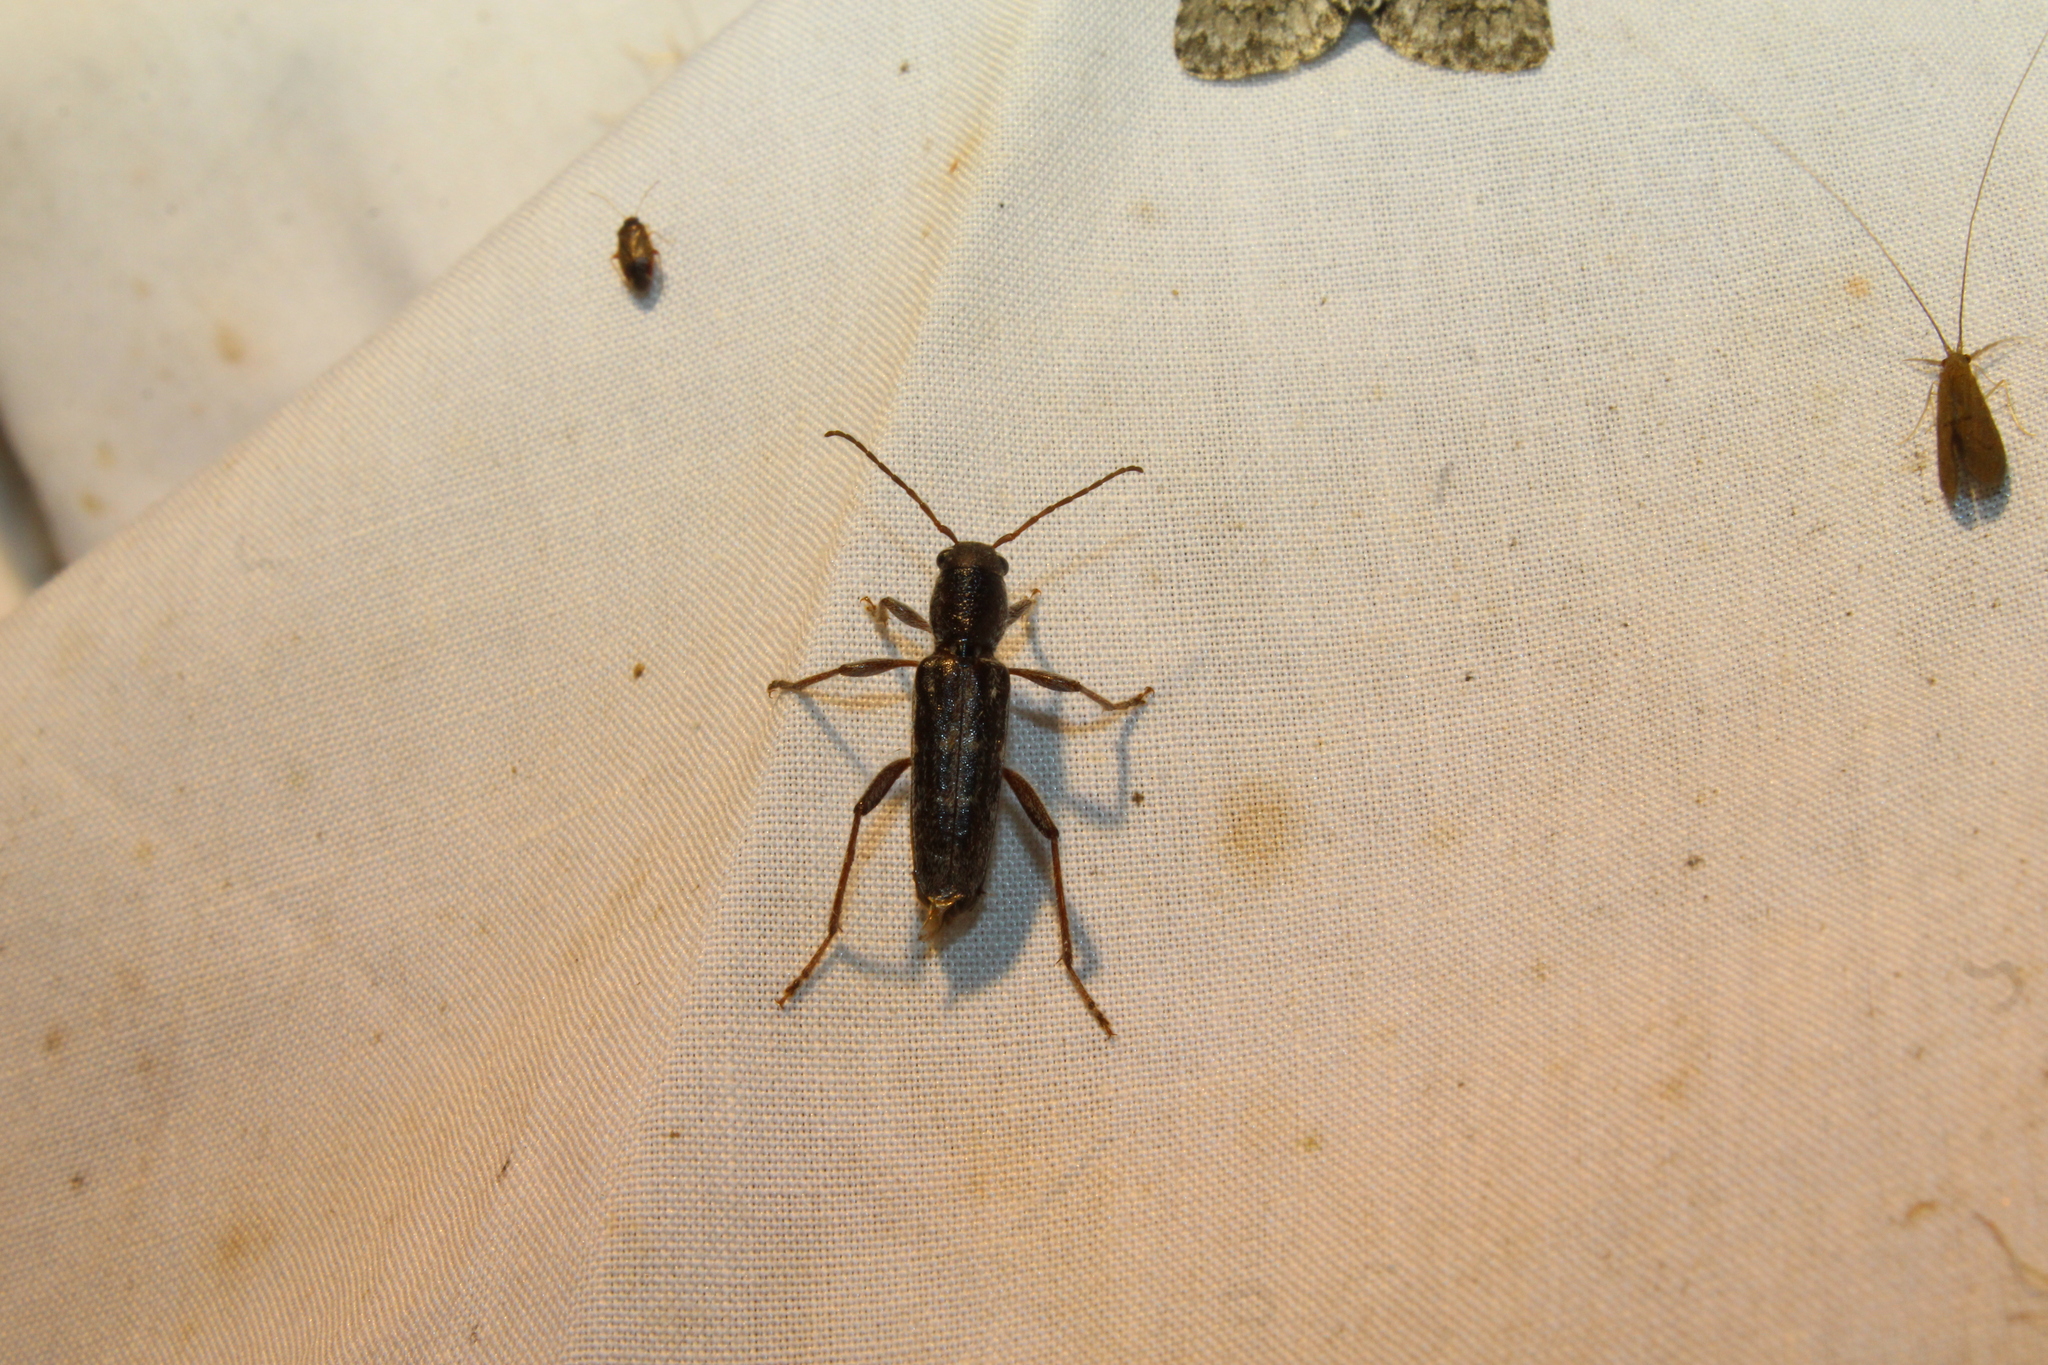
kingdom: Animalia
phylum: Arthropoda
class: Insecta
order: Coleoptera
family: Cerambycidae
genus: Xylotrechus
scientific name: Xylotrechus sagittatus
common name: Arrowhead borer
